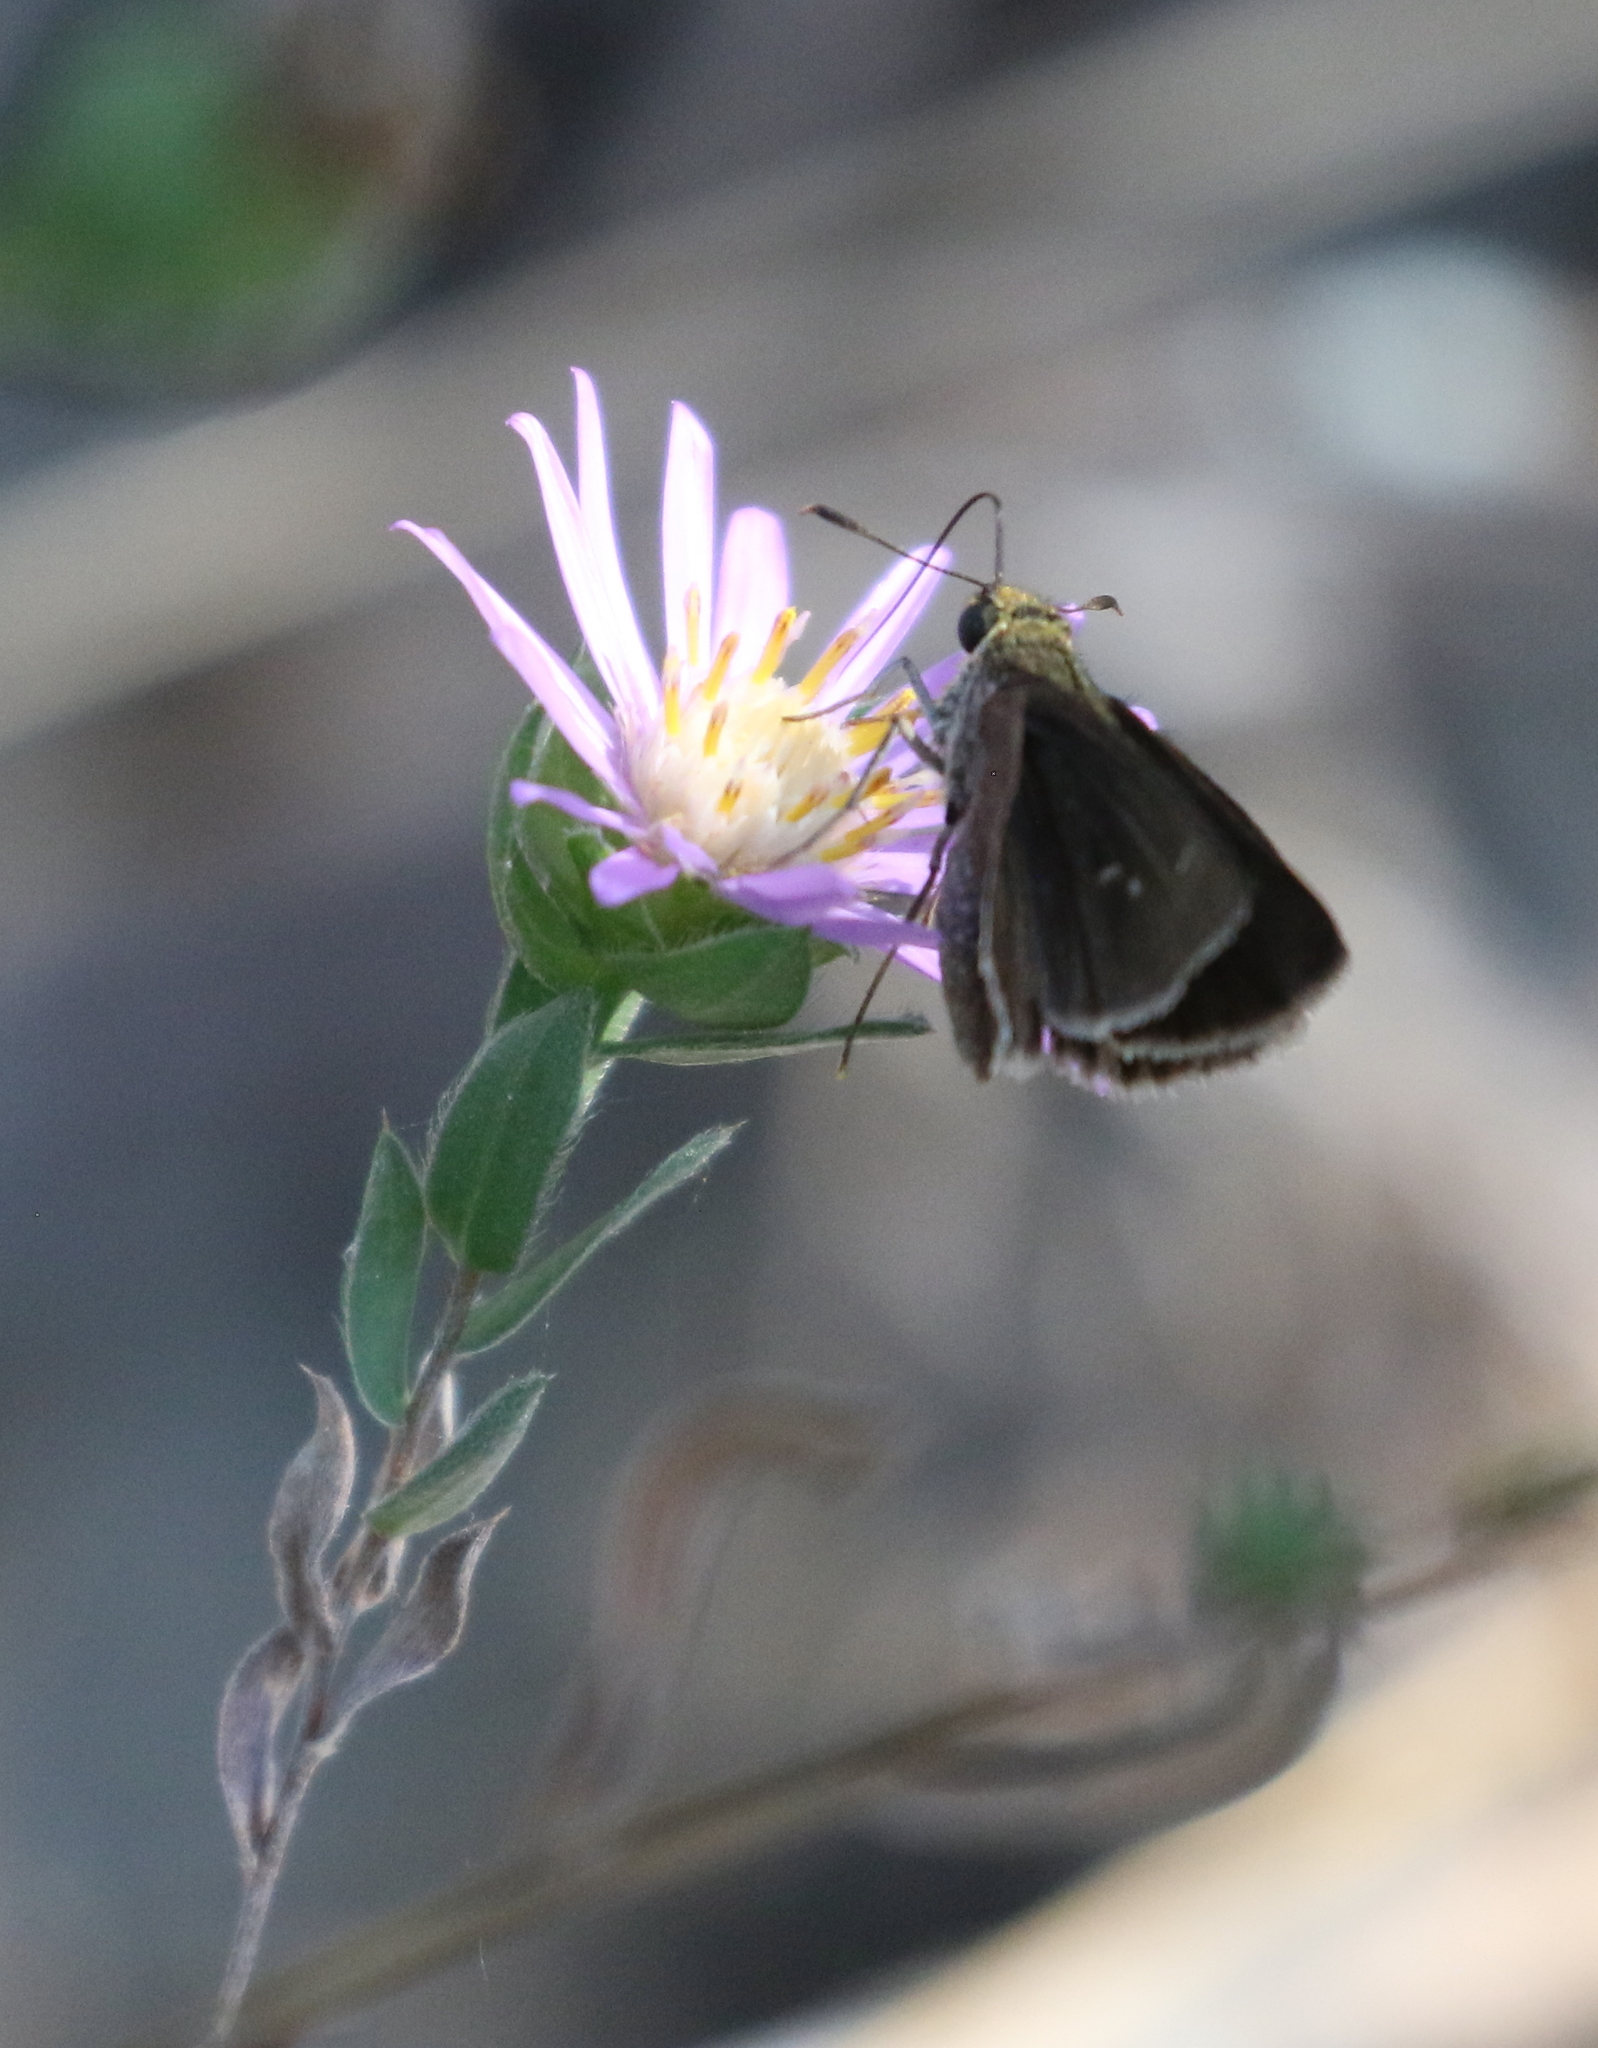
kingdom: Animalia
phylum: Arthropoda
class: Insecta
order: Lepidoptera
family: Hesperiidae
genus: Euphyes
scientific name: Euphyes vestris
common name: Dun skipper
